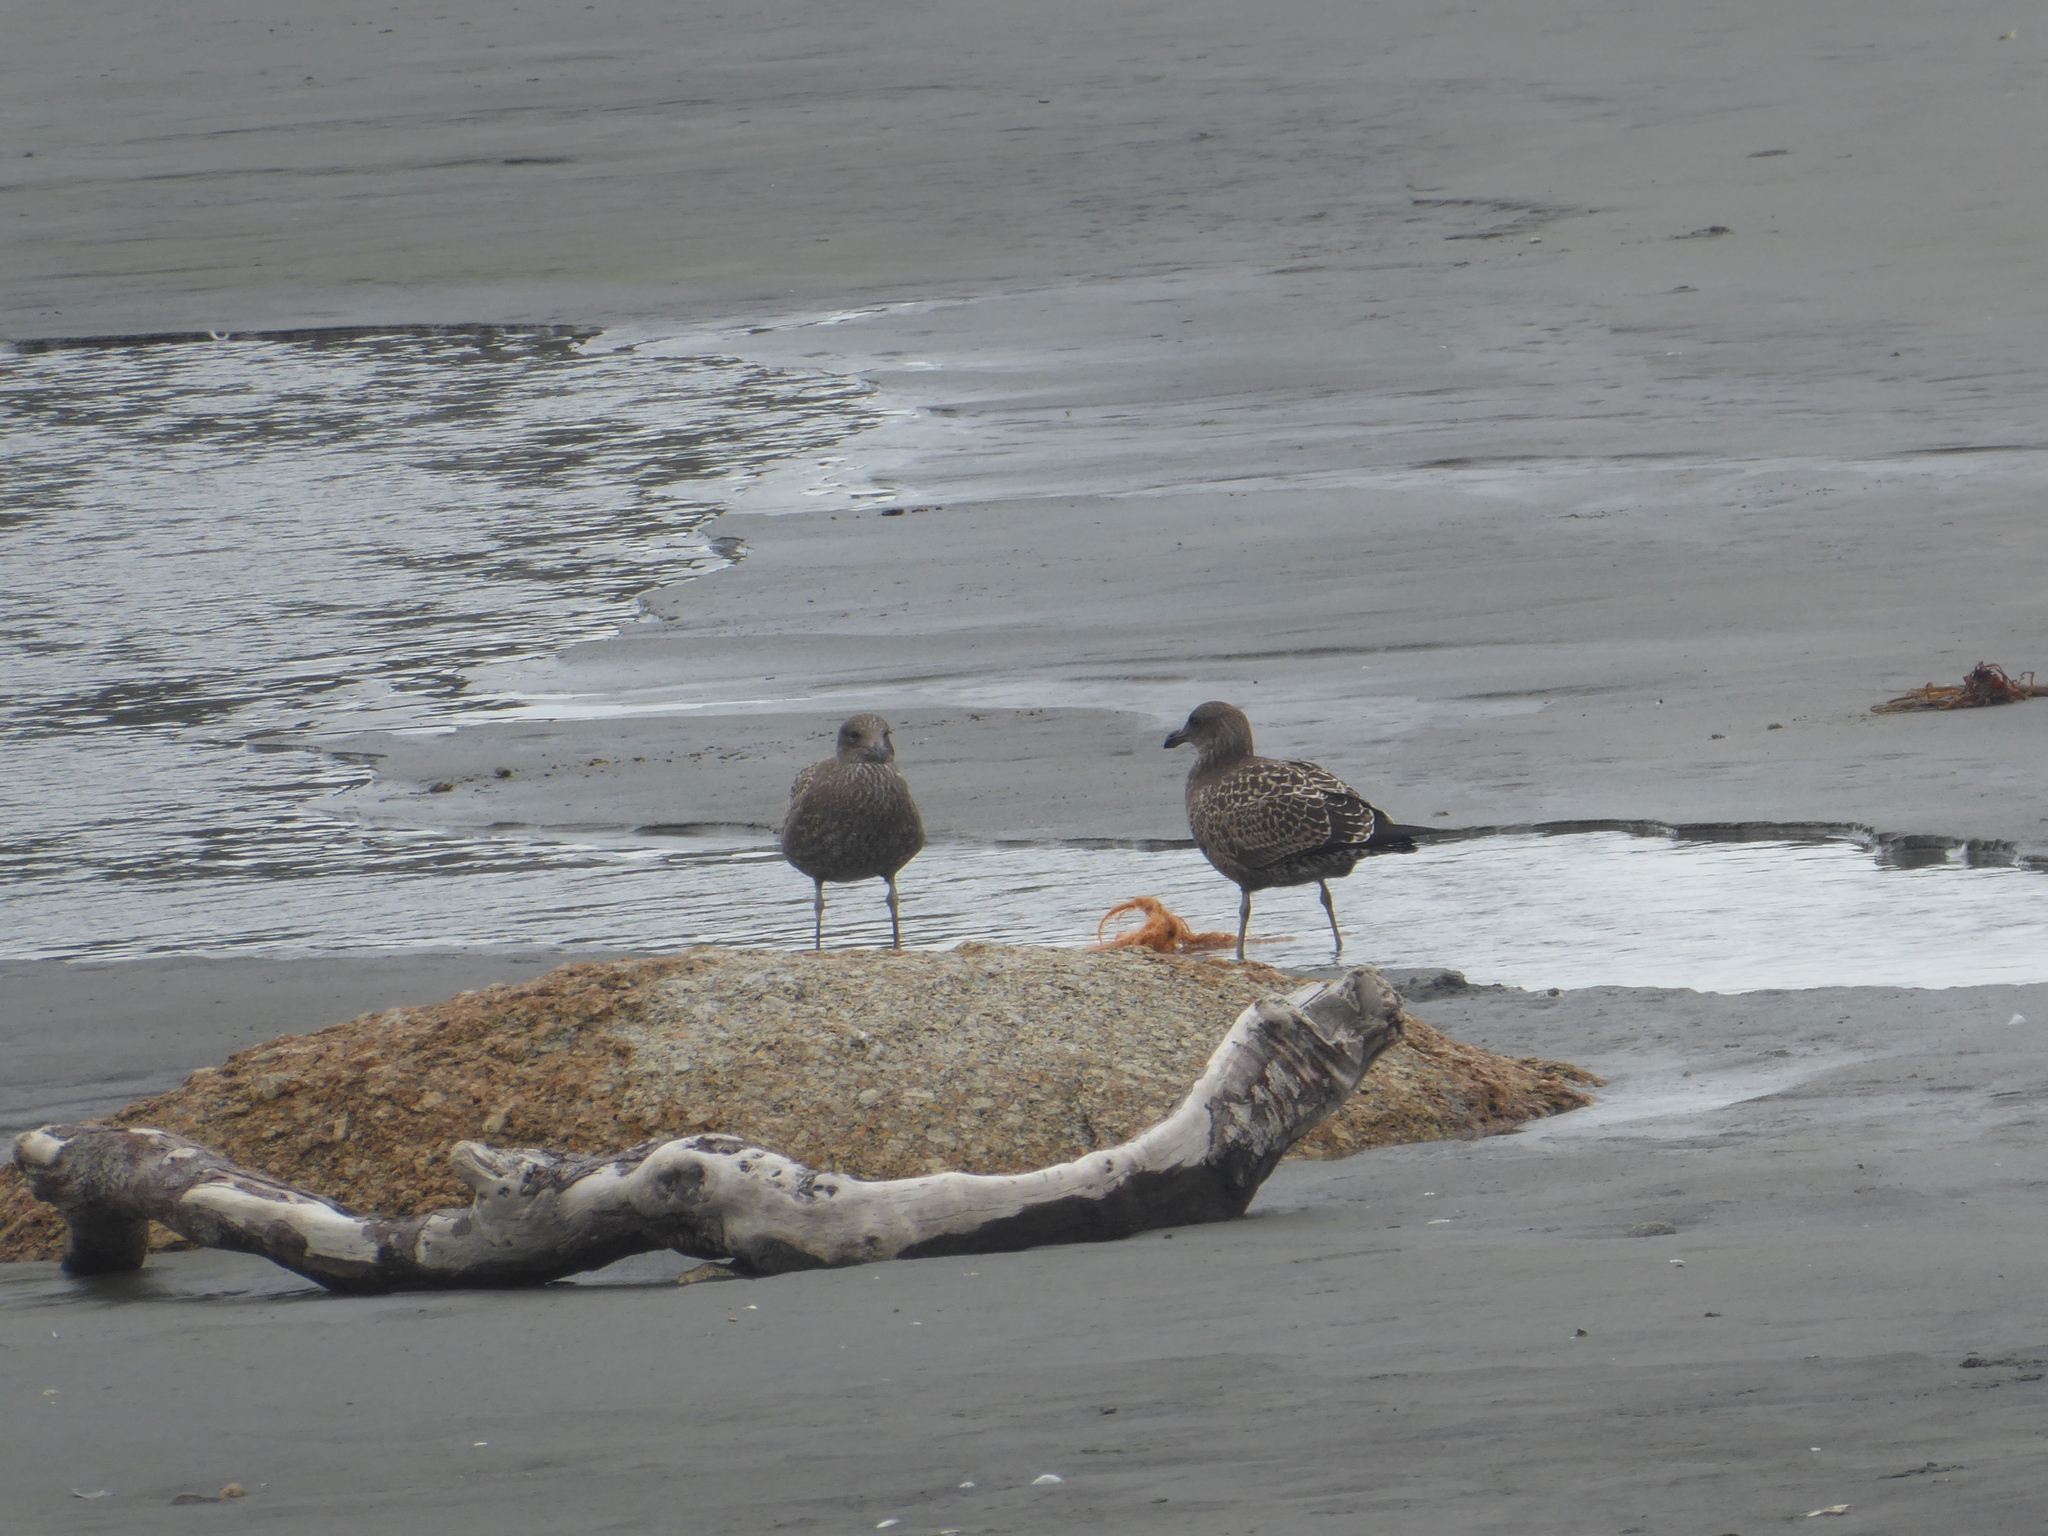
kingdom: Animalia
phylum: Chordata
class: Aves
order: Charadriiformes
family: Laridae
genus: Larus
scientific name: Larus dominicanus
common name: Kelp gull
